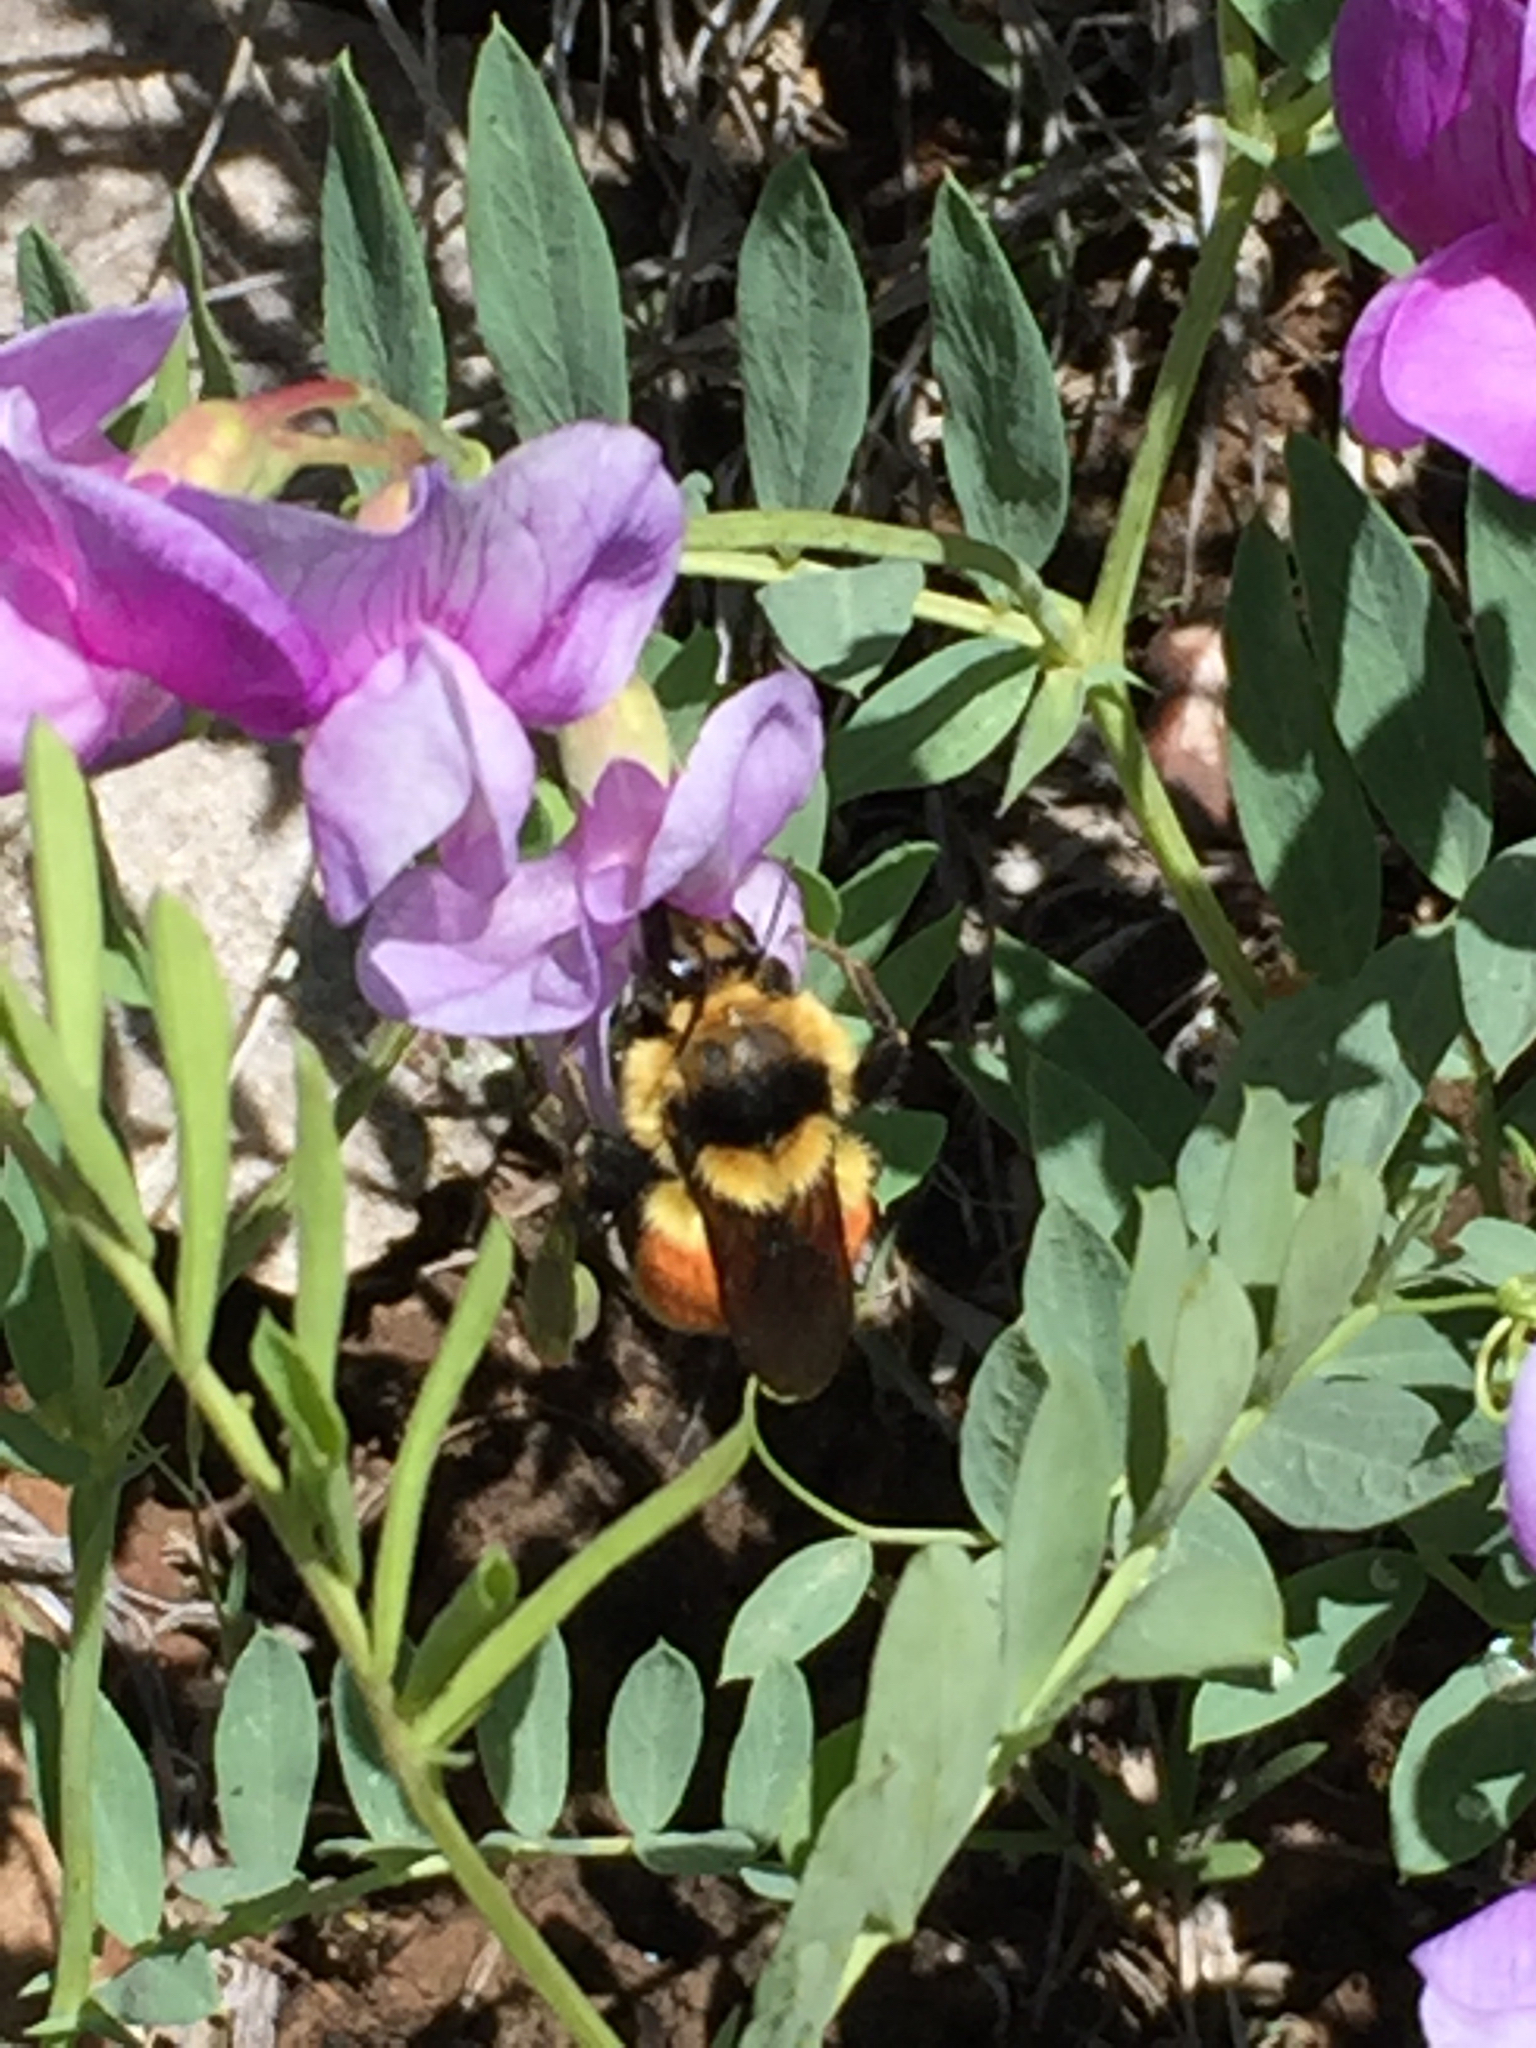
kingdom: Animalia
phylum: Arthropoda
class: Insecta
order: Hymenoptera
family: Apidae
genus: Bombus
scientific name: Bombus huntii
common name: Hunt bumble bee
